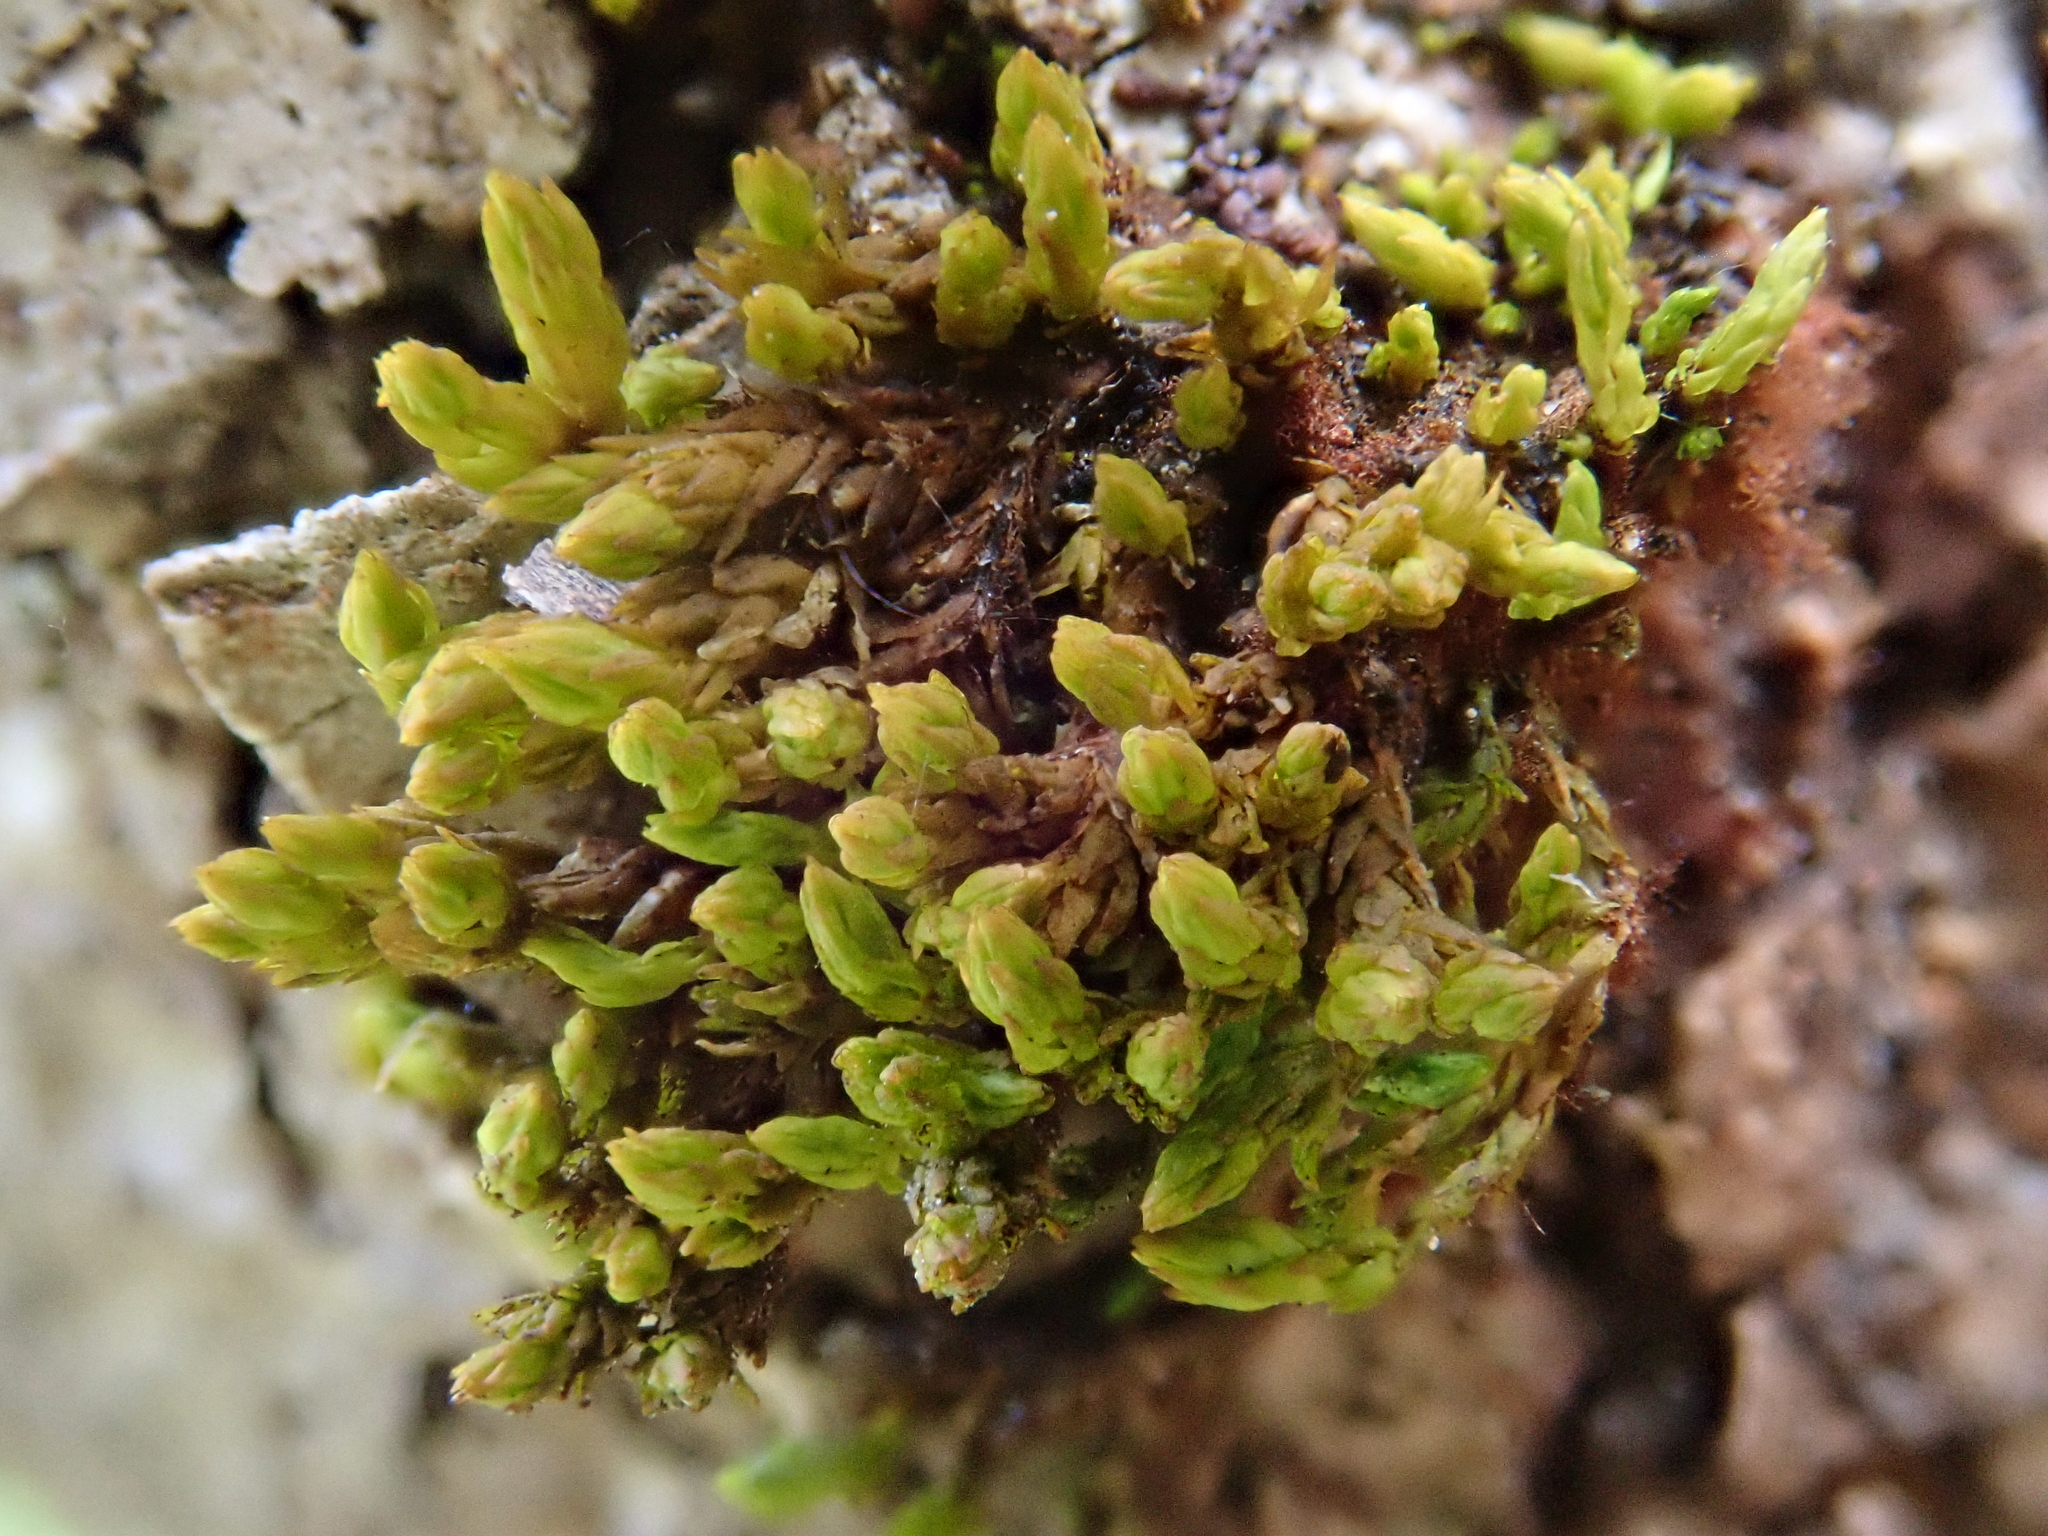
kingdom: Plantae
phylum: Bryophyta
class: Bryopsida
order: Orthotrichales
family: Orthotrichaceae
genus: Nyholmiella
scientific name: Nyholmiella obtusifolia
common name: Blunt-leaved bristle-moss
